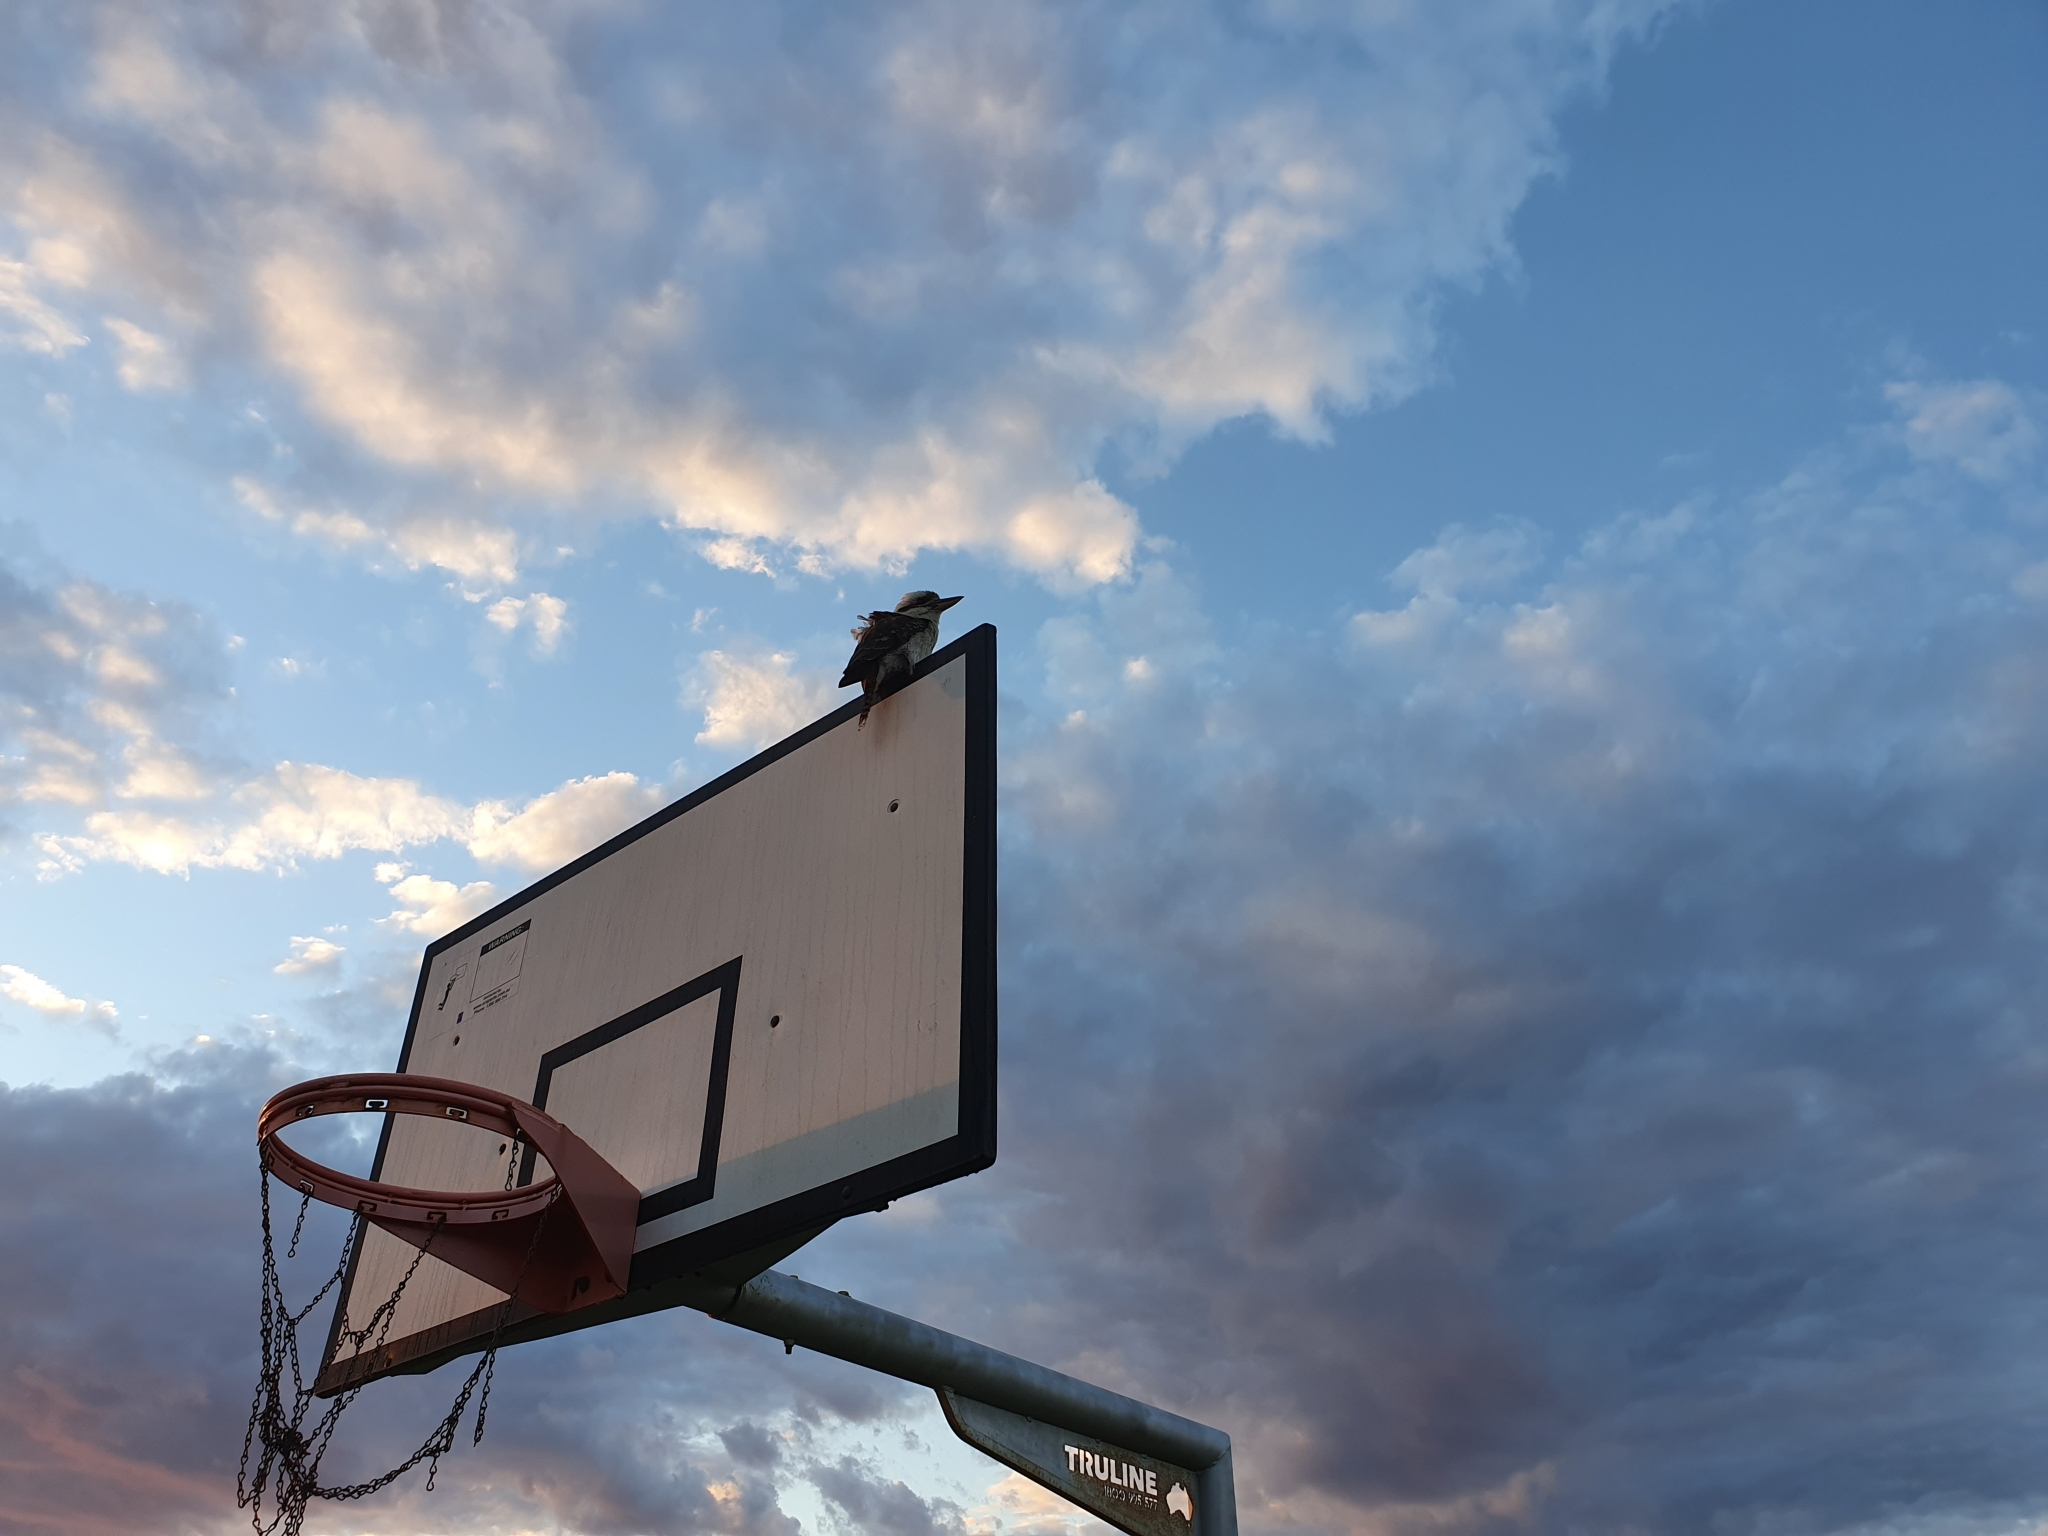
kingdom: Animalia
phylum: Chordata
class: Aves
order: Coraciiformes
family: Alcedinidae
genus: Dacelo
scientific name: Dacelo novaeguineae
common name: Laughing kookaburra
